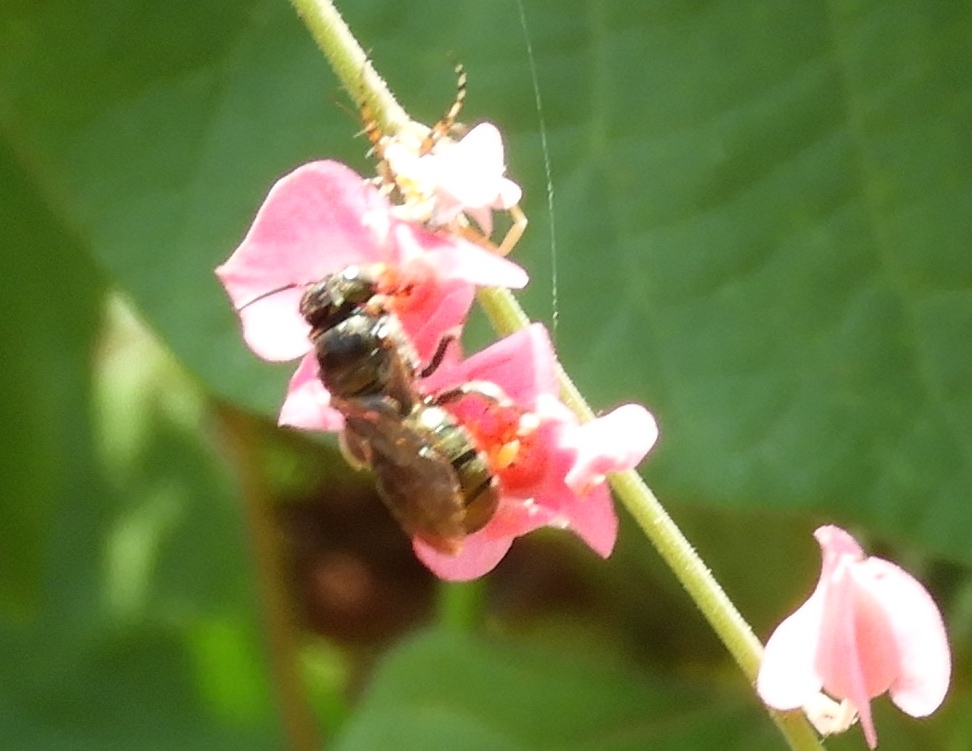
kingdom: Animalia
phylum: Arthropoda
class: Insecta
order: Hymenoptera
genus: Calloceratina
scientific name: Calloceratina
